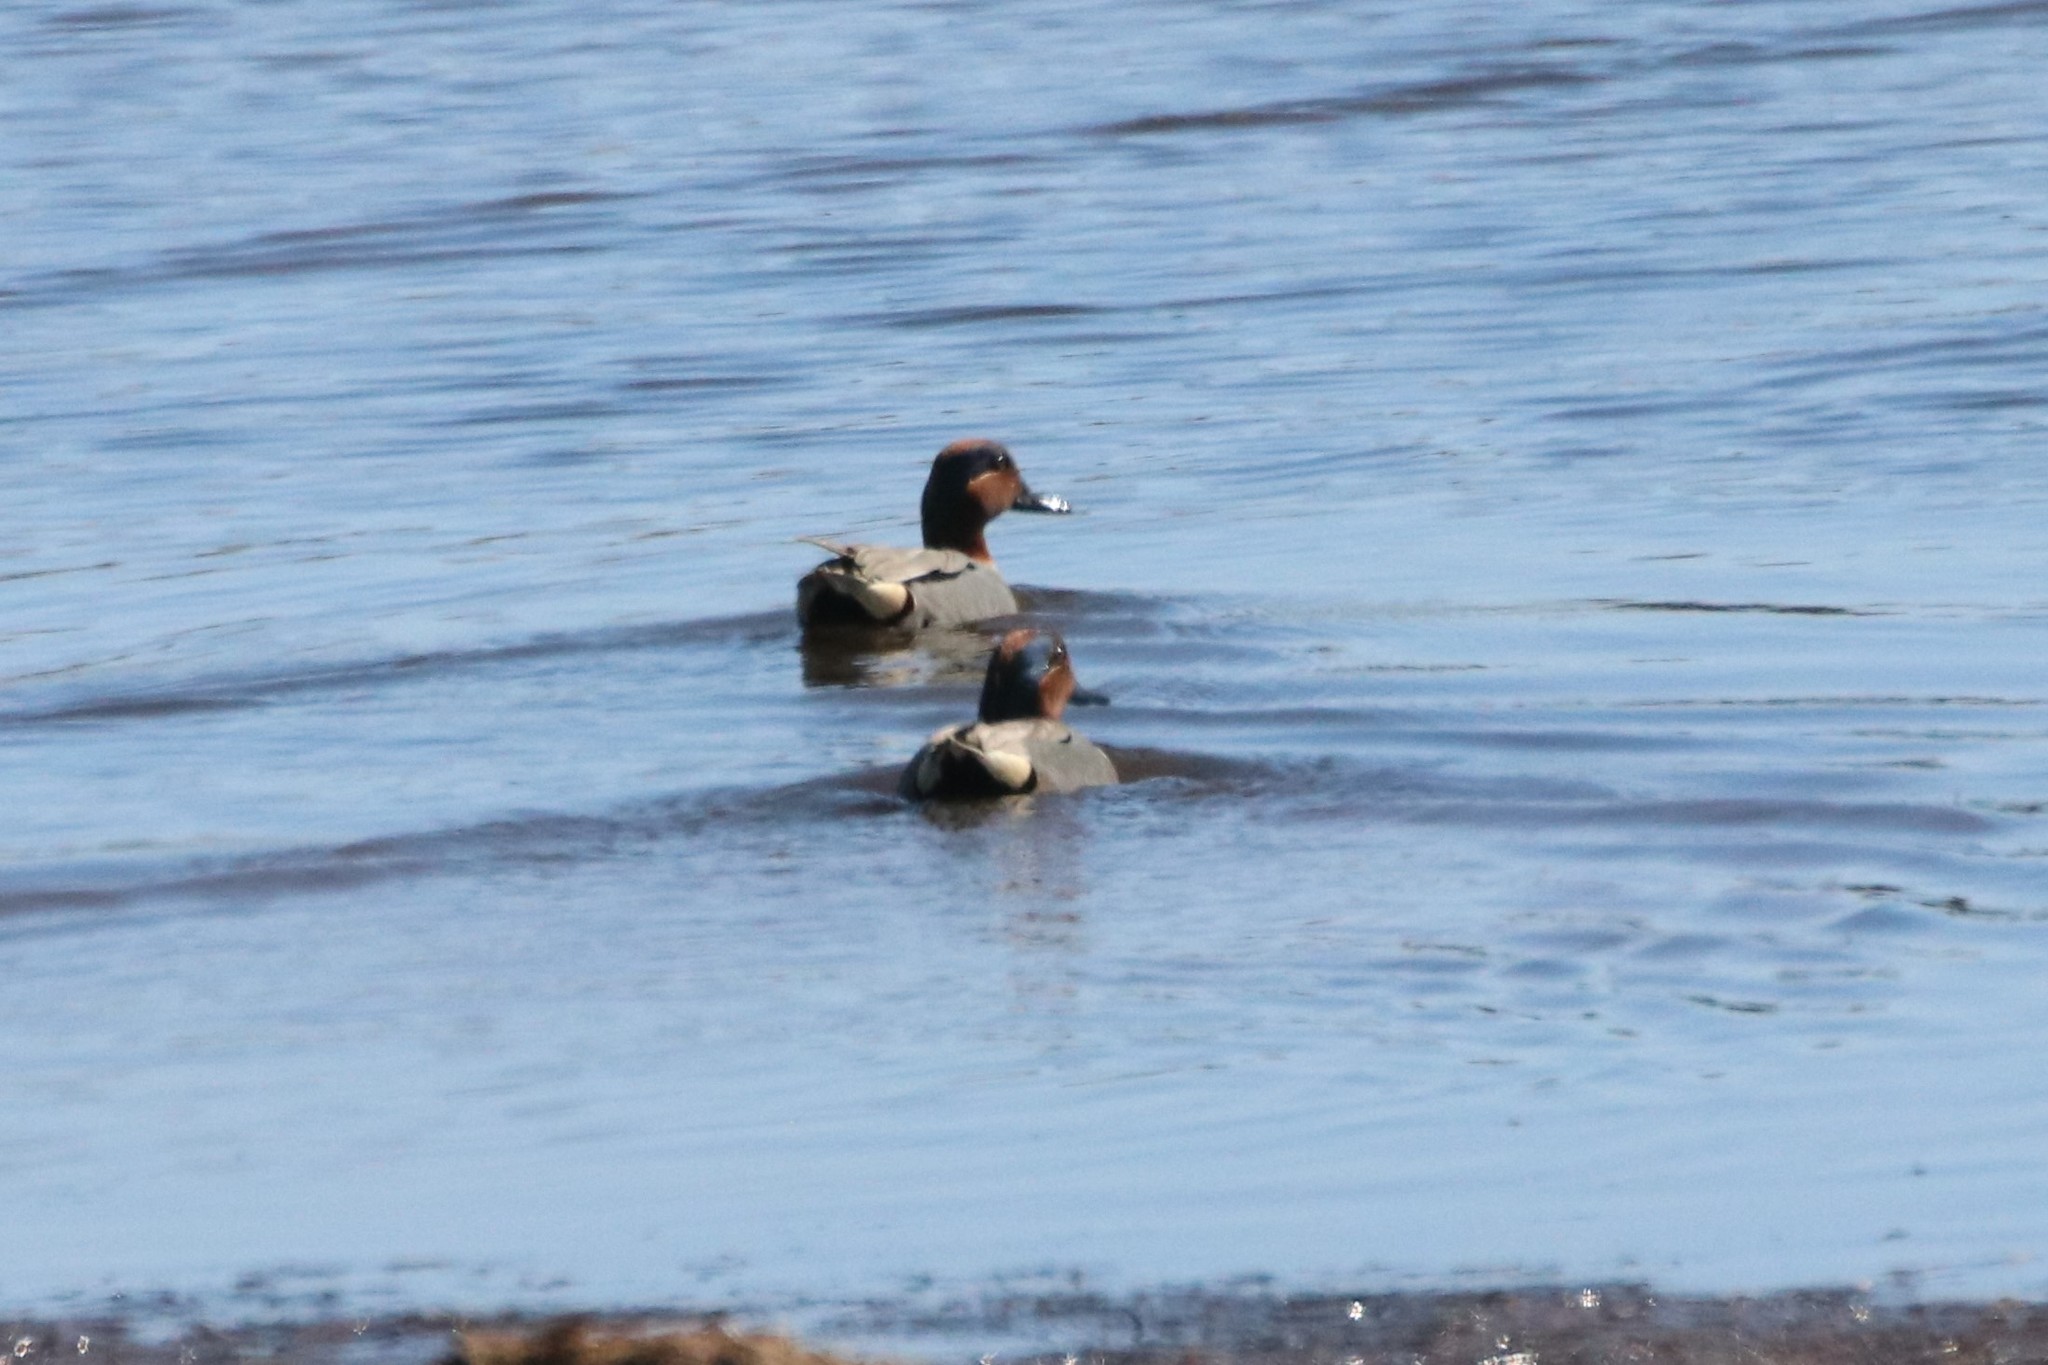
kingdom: Animalia
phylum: Chordata
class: Aves
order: Anseriformes
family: Anatidae
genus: Anas
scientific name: Anas crecca
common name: Eurasian teal
